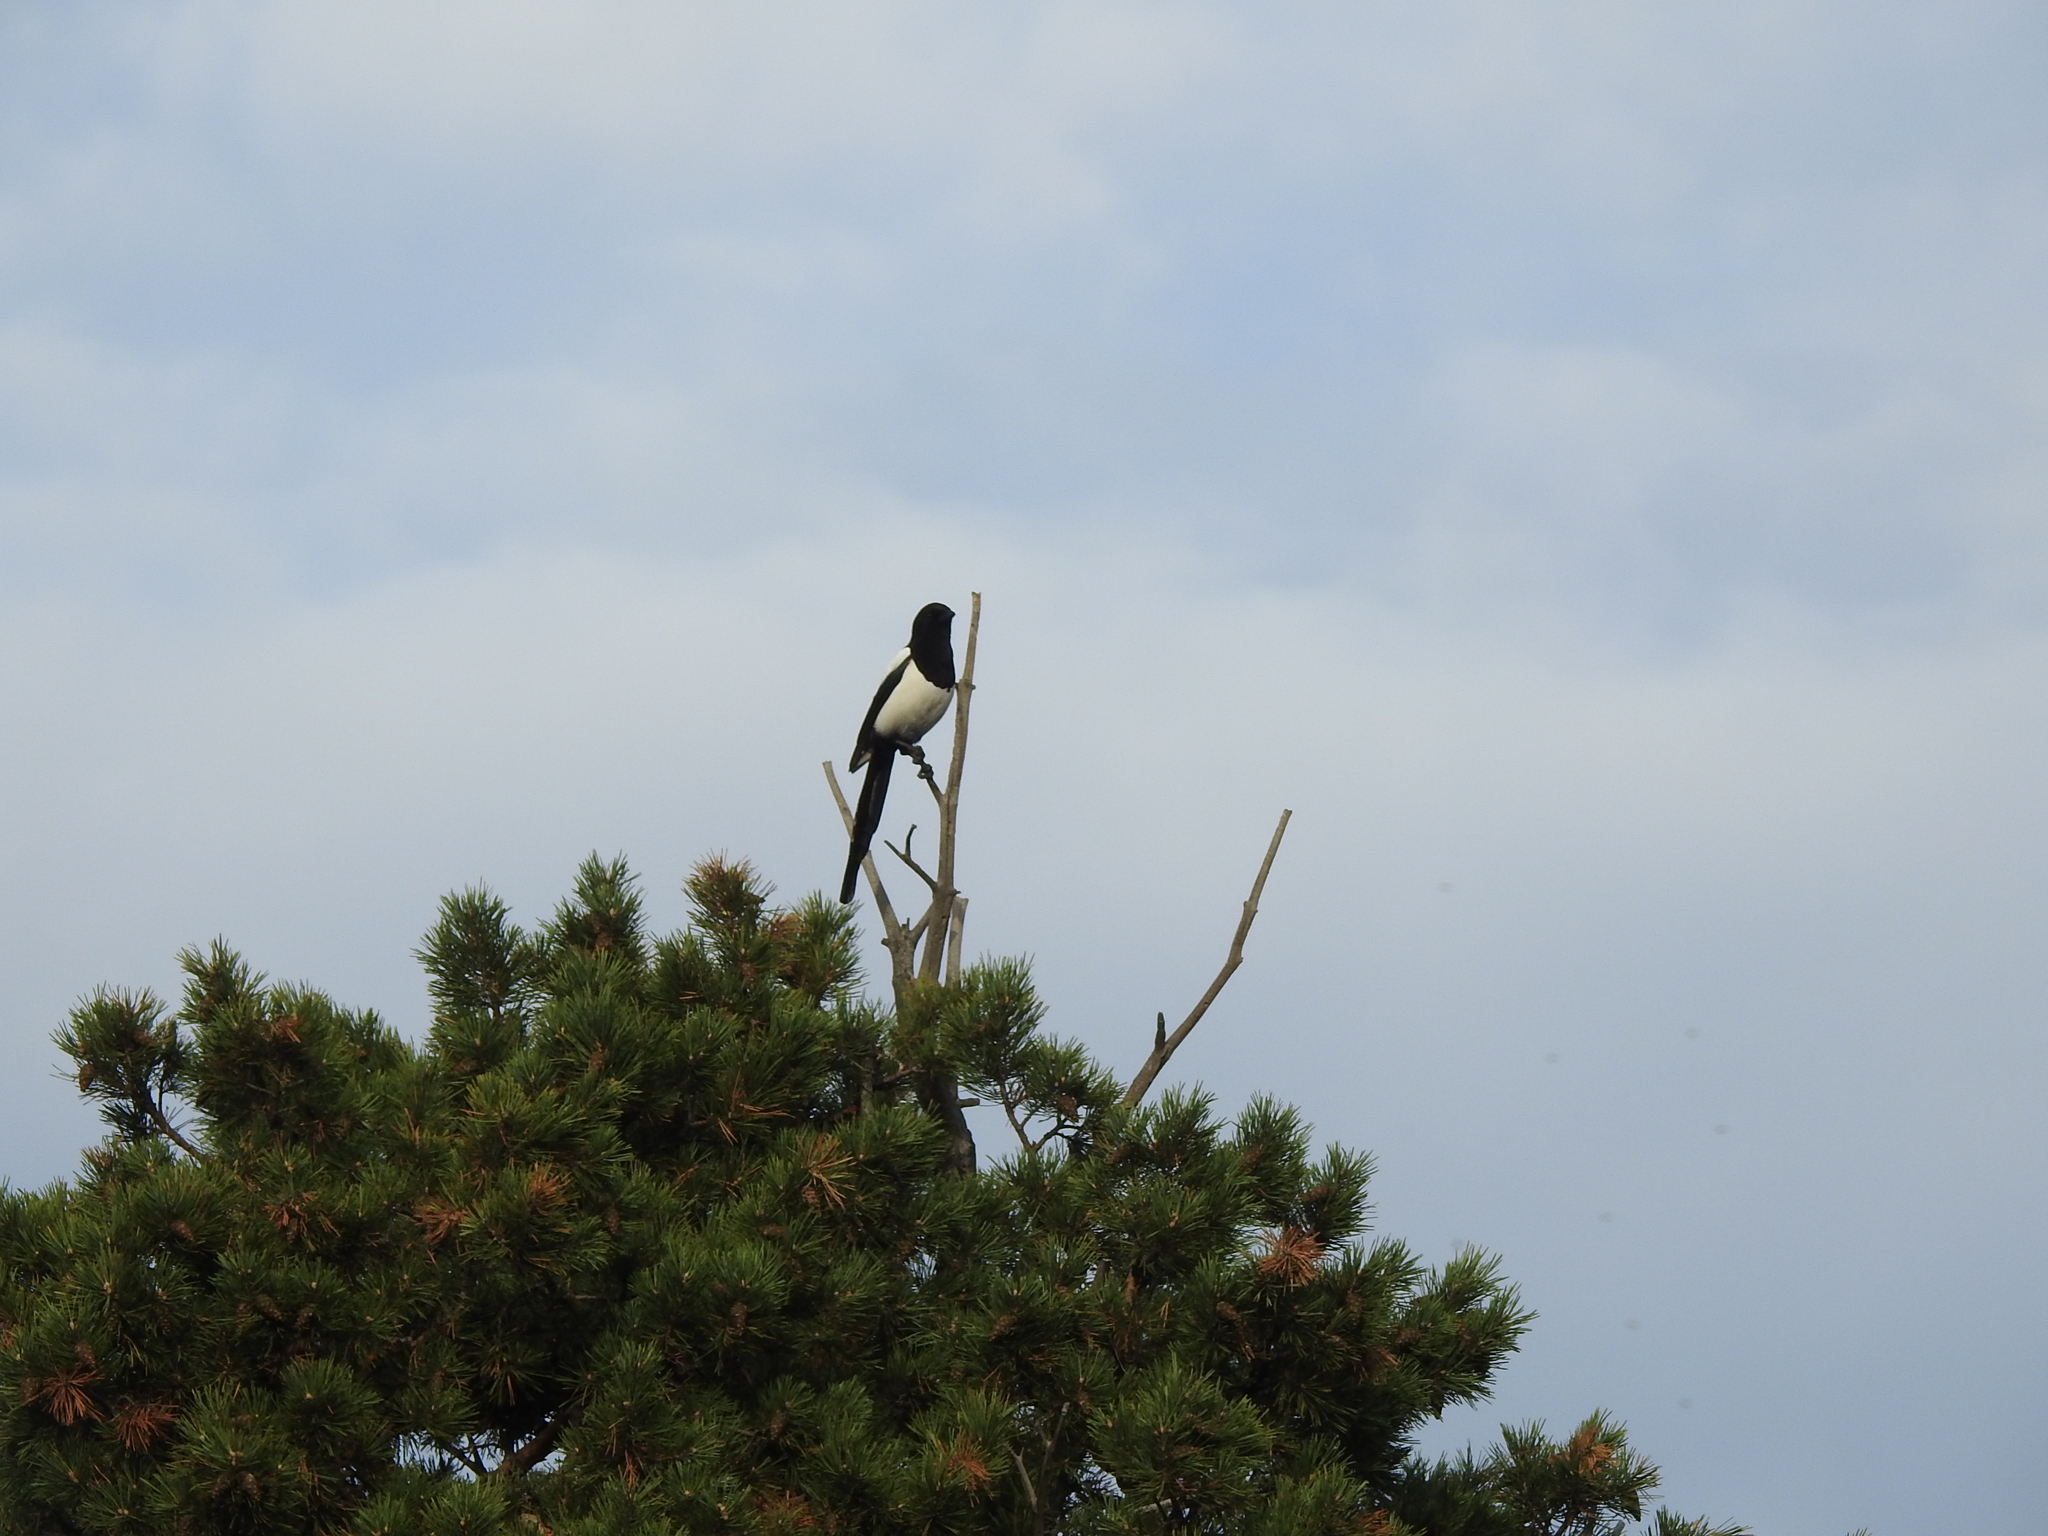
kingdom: Animalia
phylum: Chordata
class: Aves
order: Passeriformes
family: Corvidae
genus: Pica
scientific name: Pica pica
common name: Eurasian magpie
